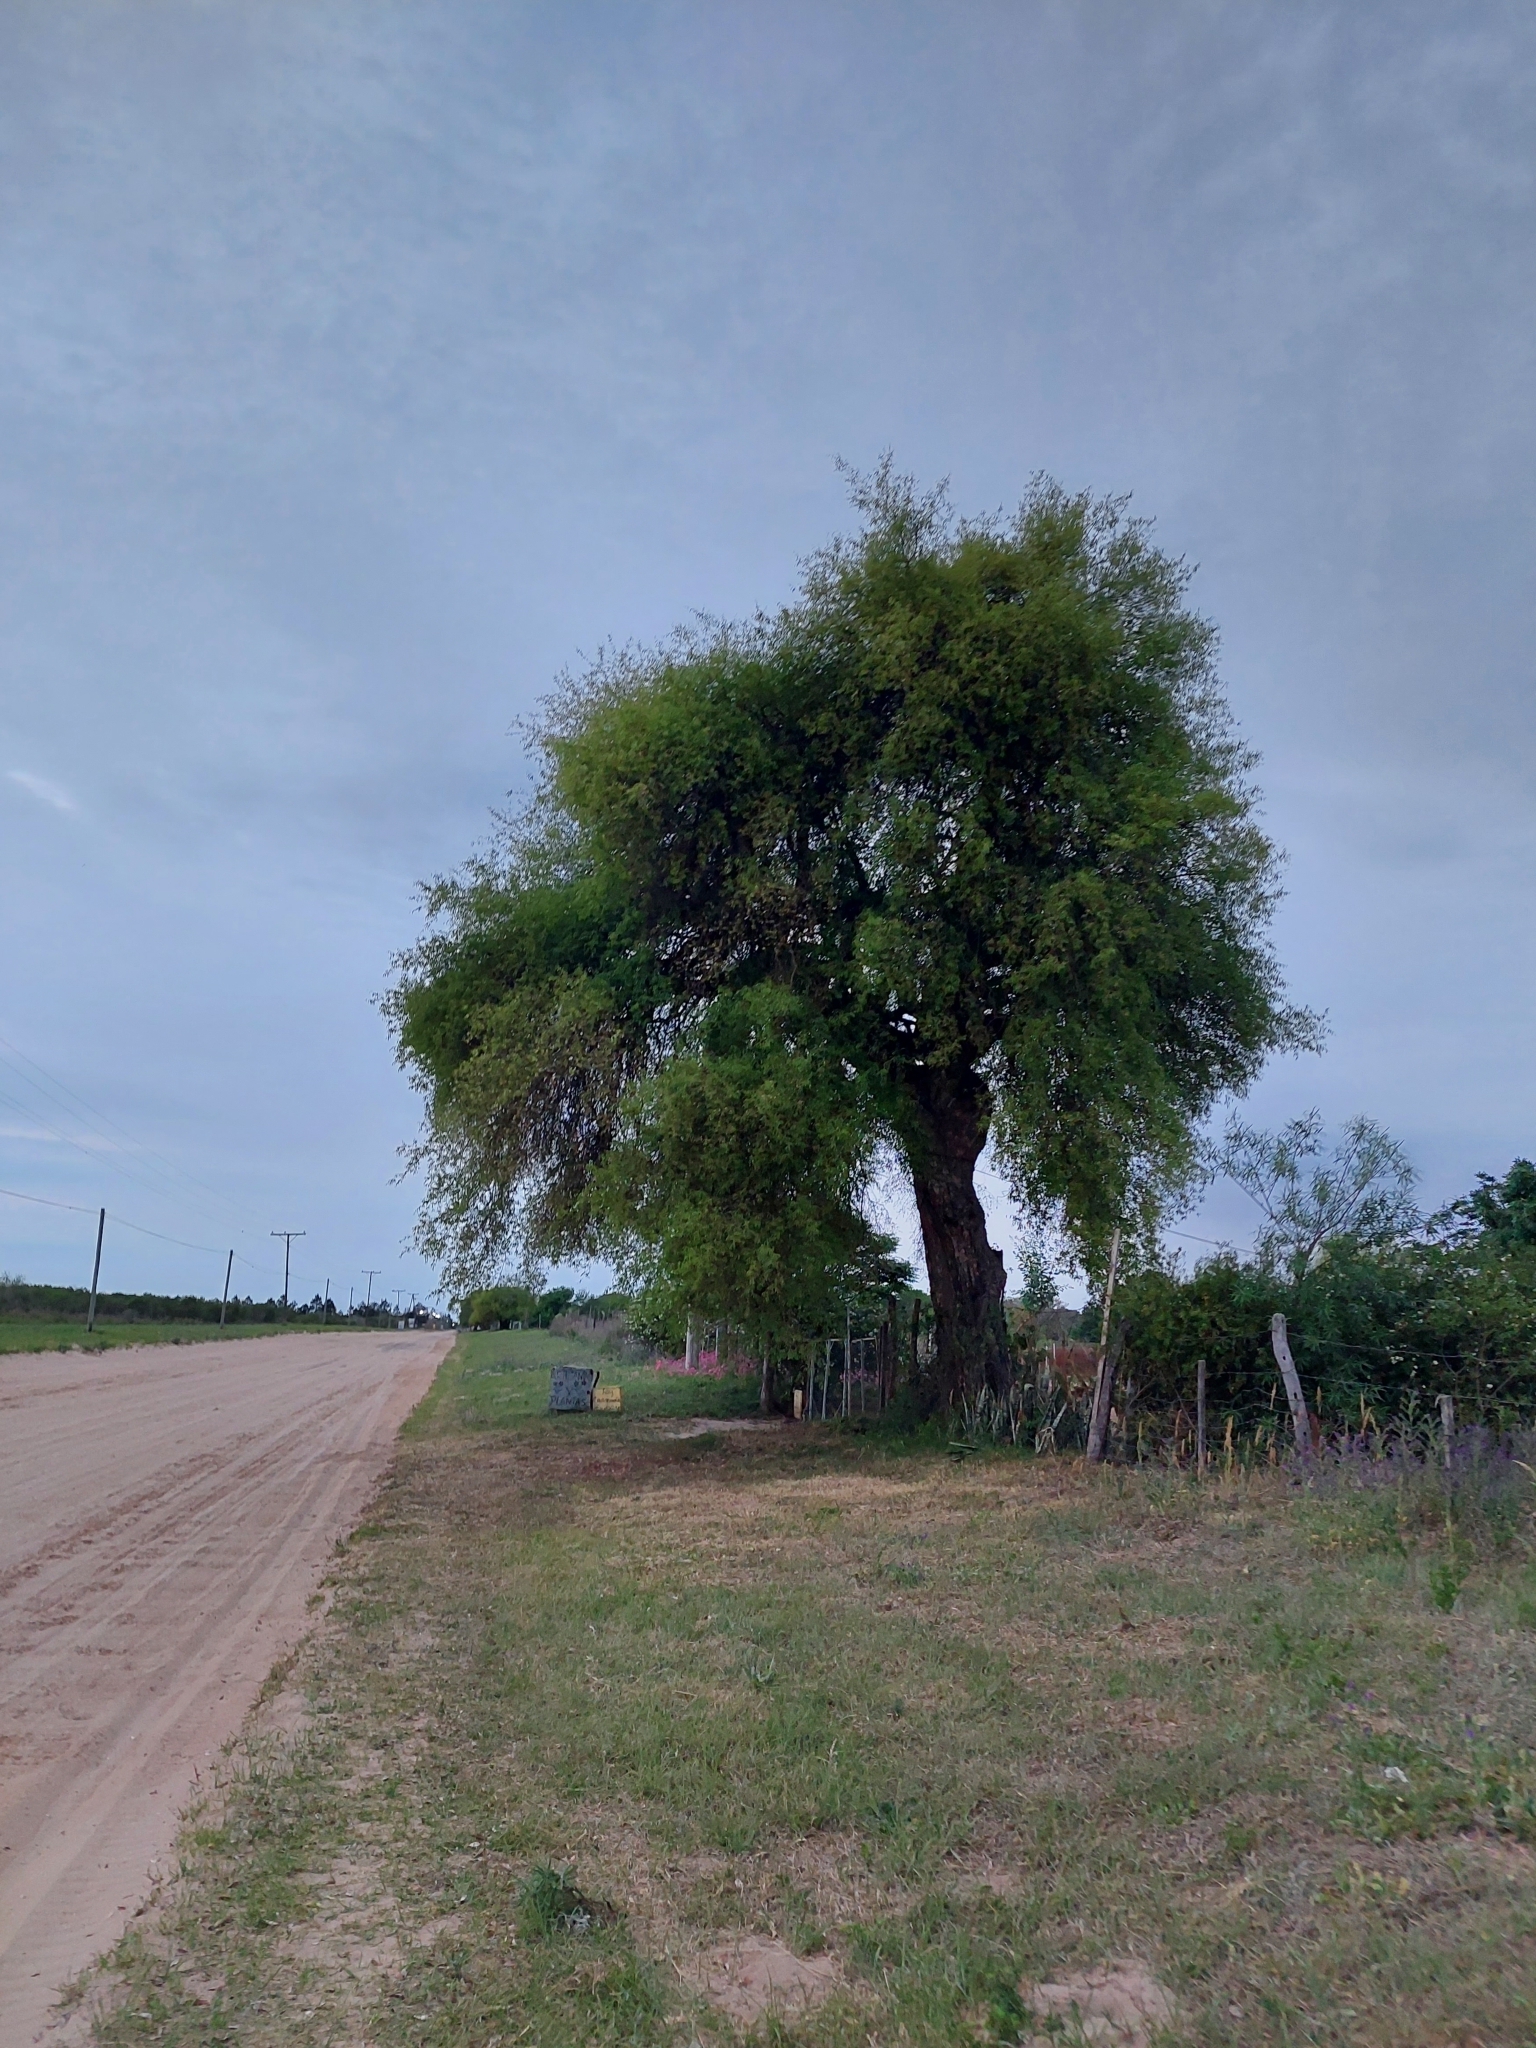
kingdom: Plantae
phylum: Tracheophyta
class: Magnoliopsida
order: Myrtales
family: Myrtaceae
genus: Eugenia
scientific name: Eugenia myrcianthes
